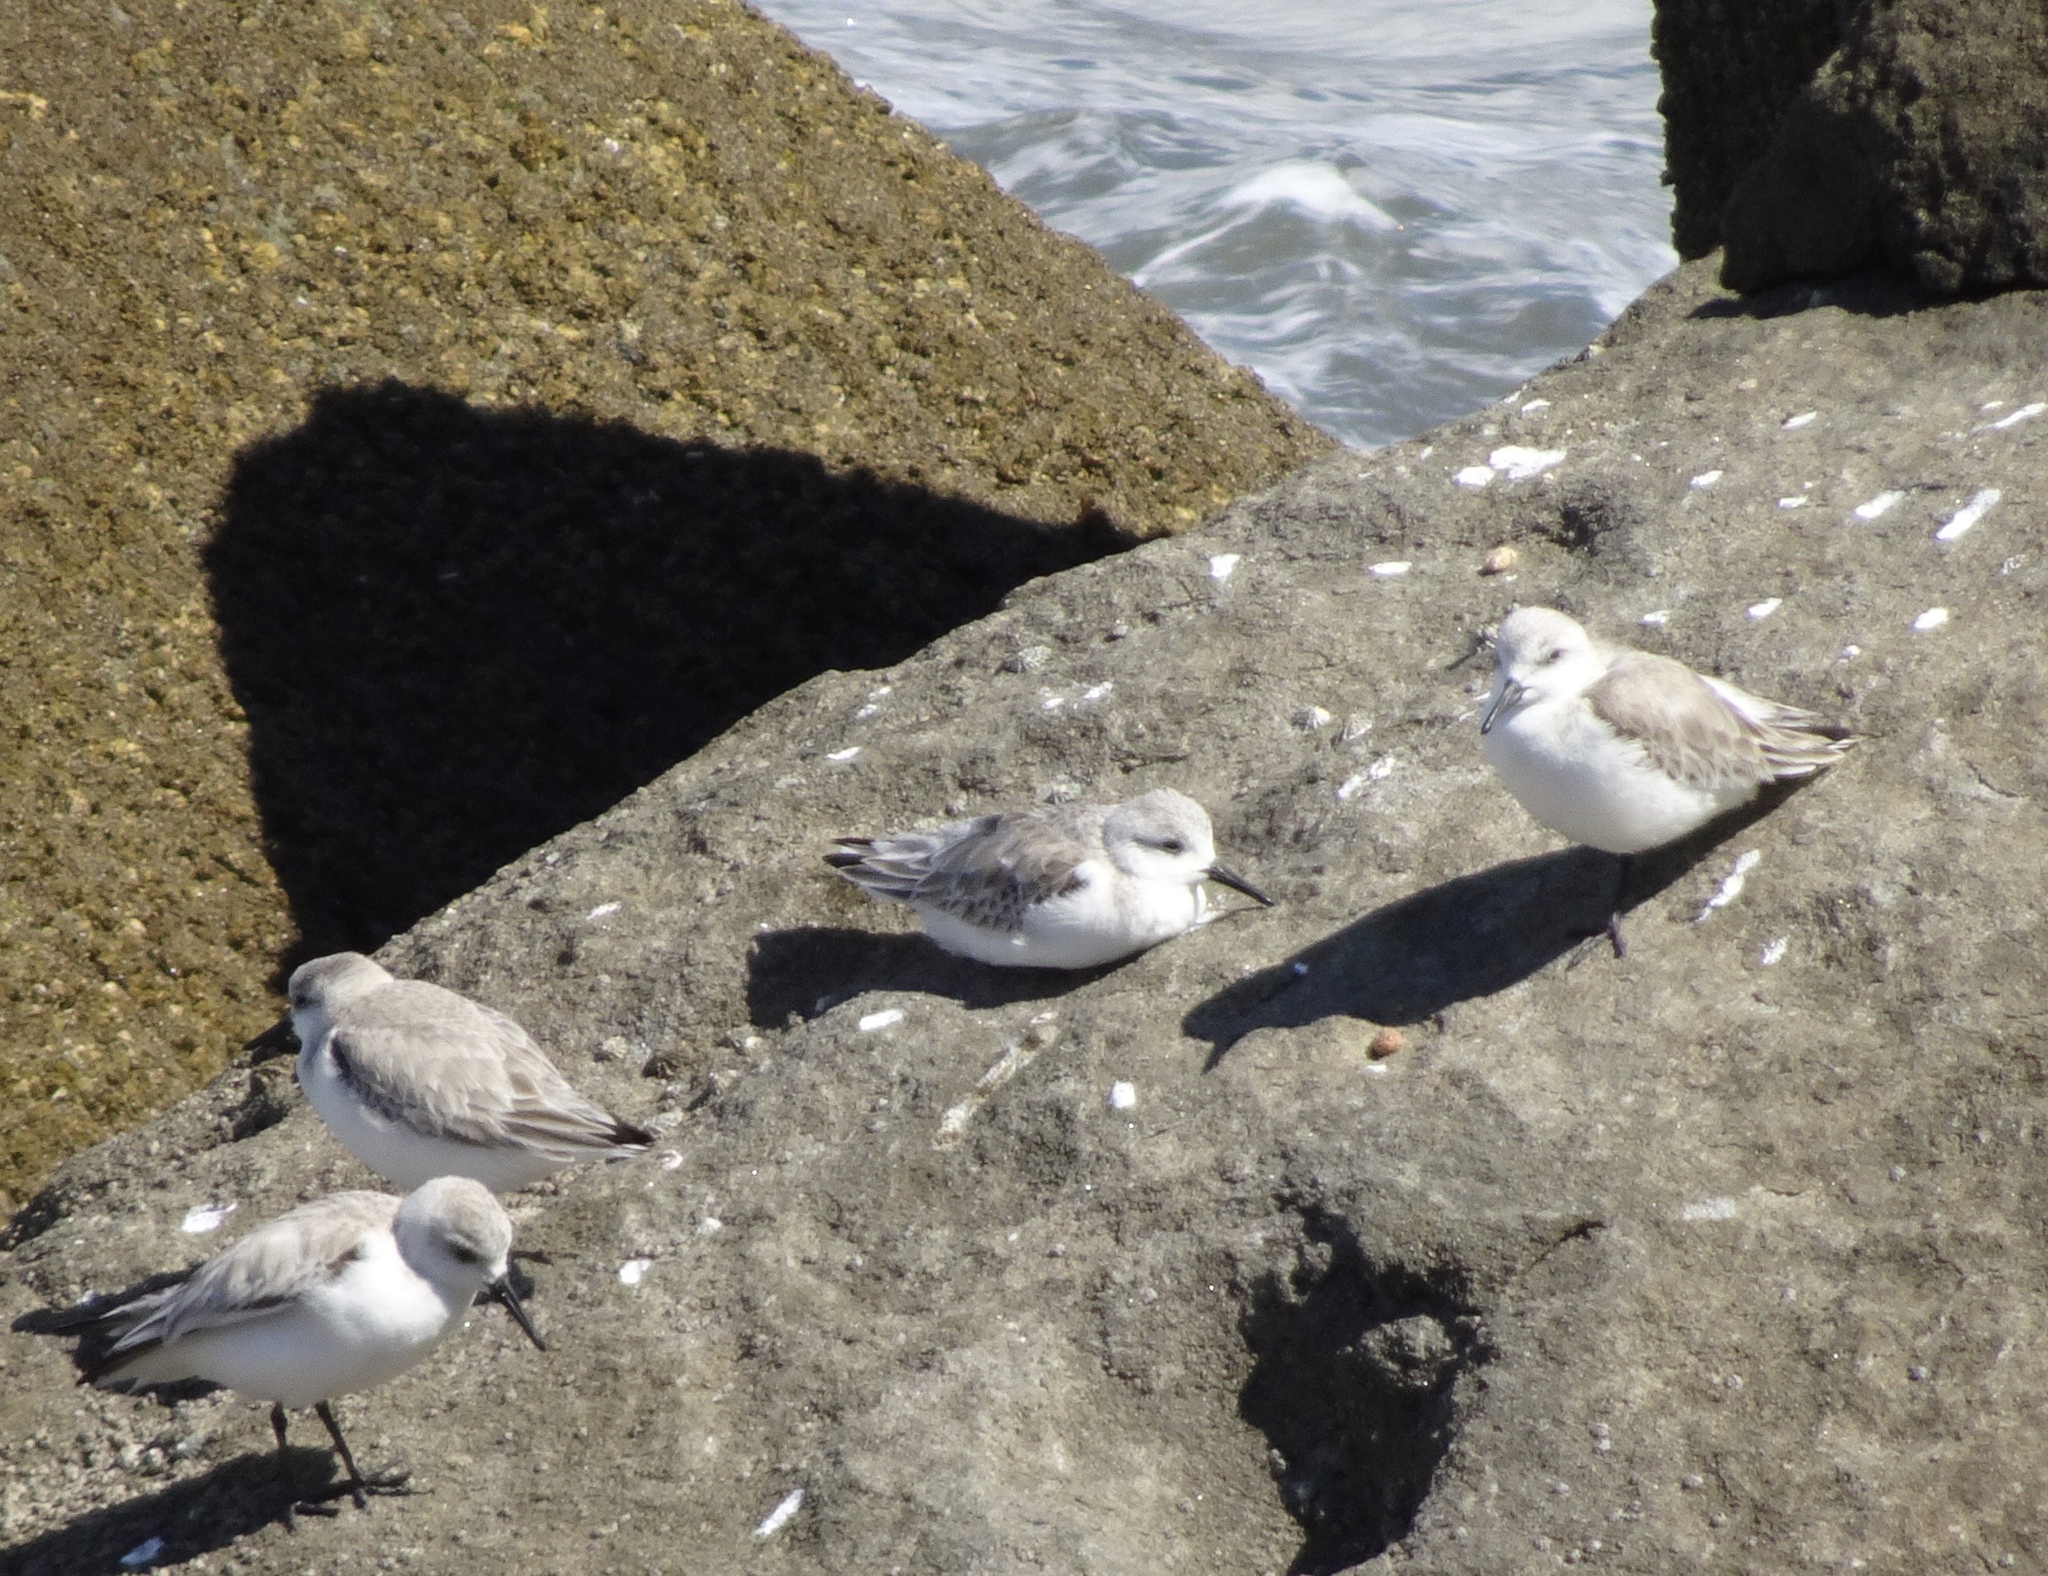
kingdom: Animalia
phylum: Chordata
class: Aves
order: Charadriiformes
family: Scolopacidae
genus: Calidris
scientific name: Calidris alba
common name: Sanderling
